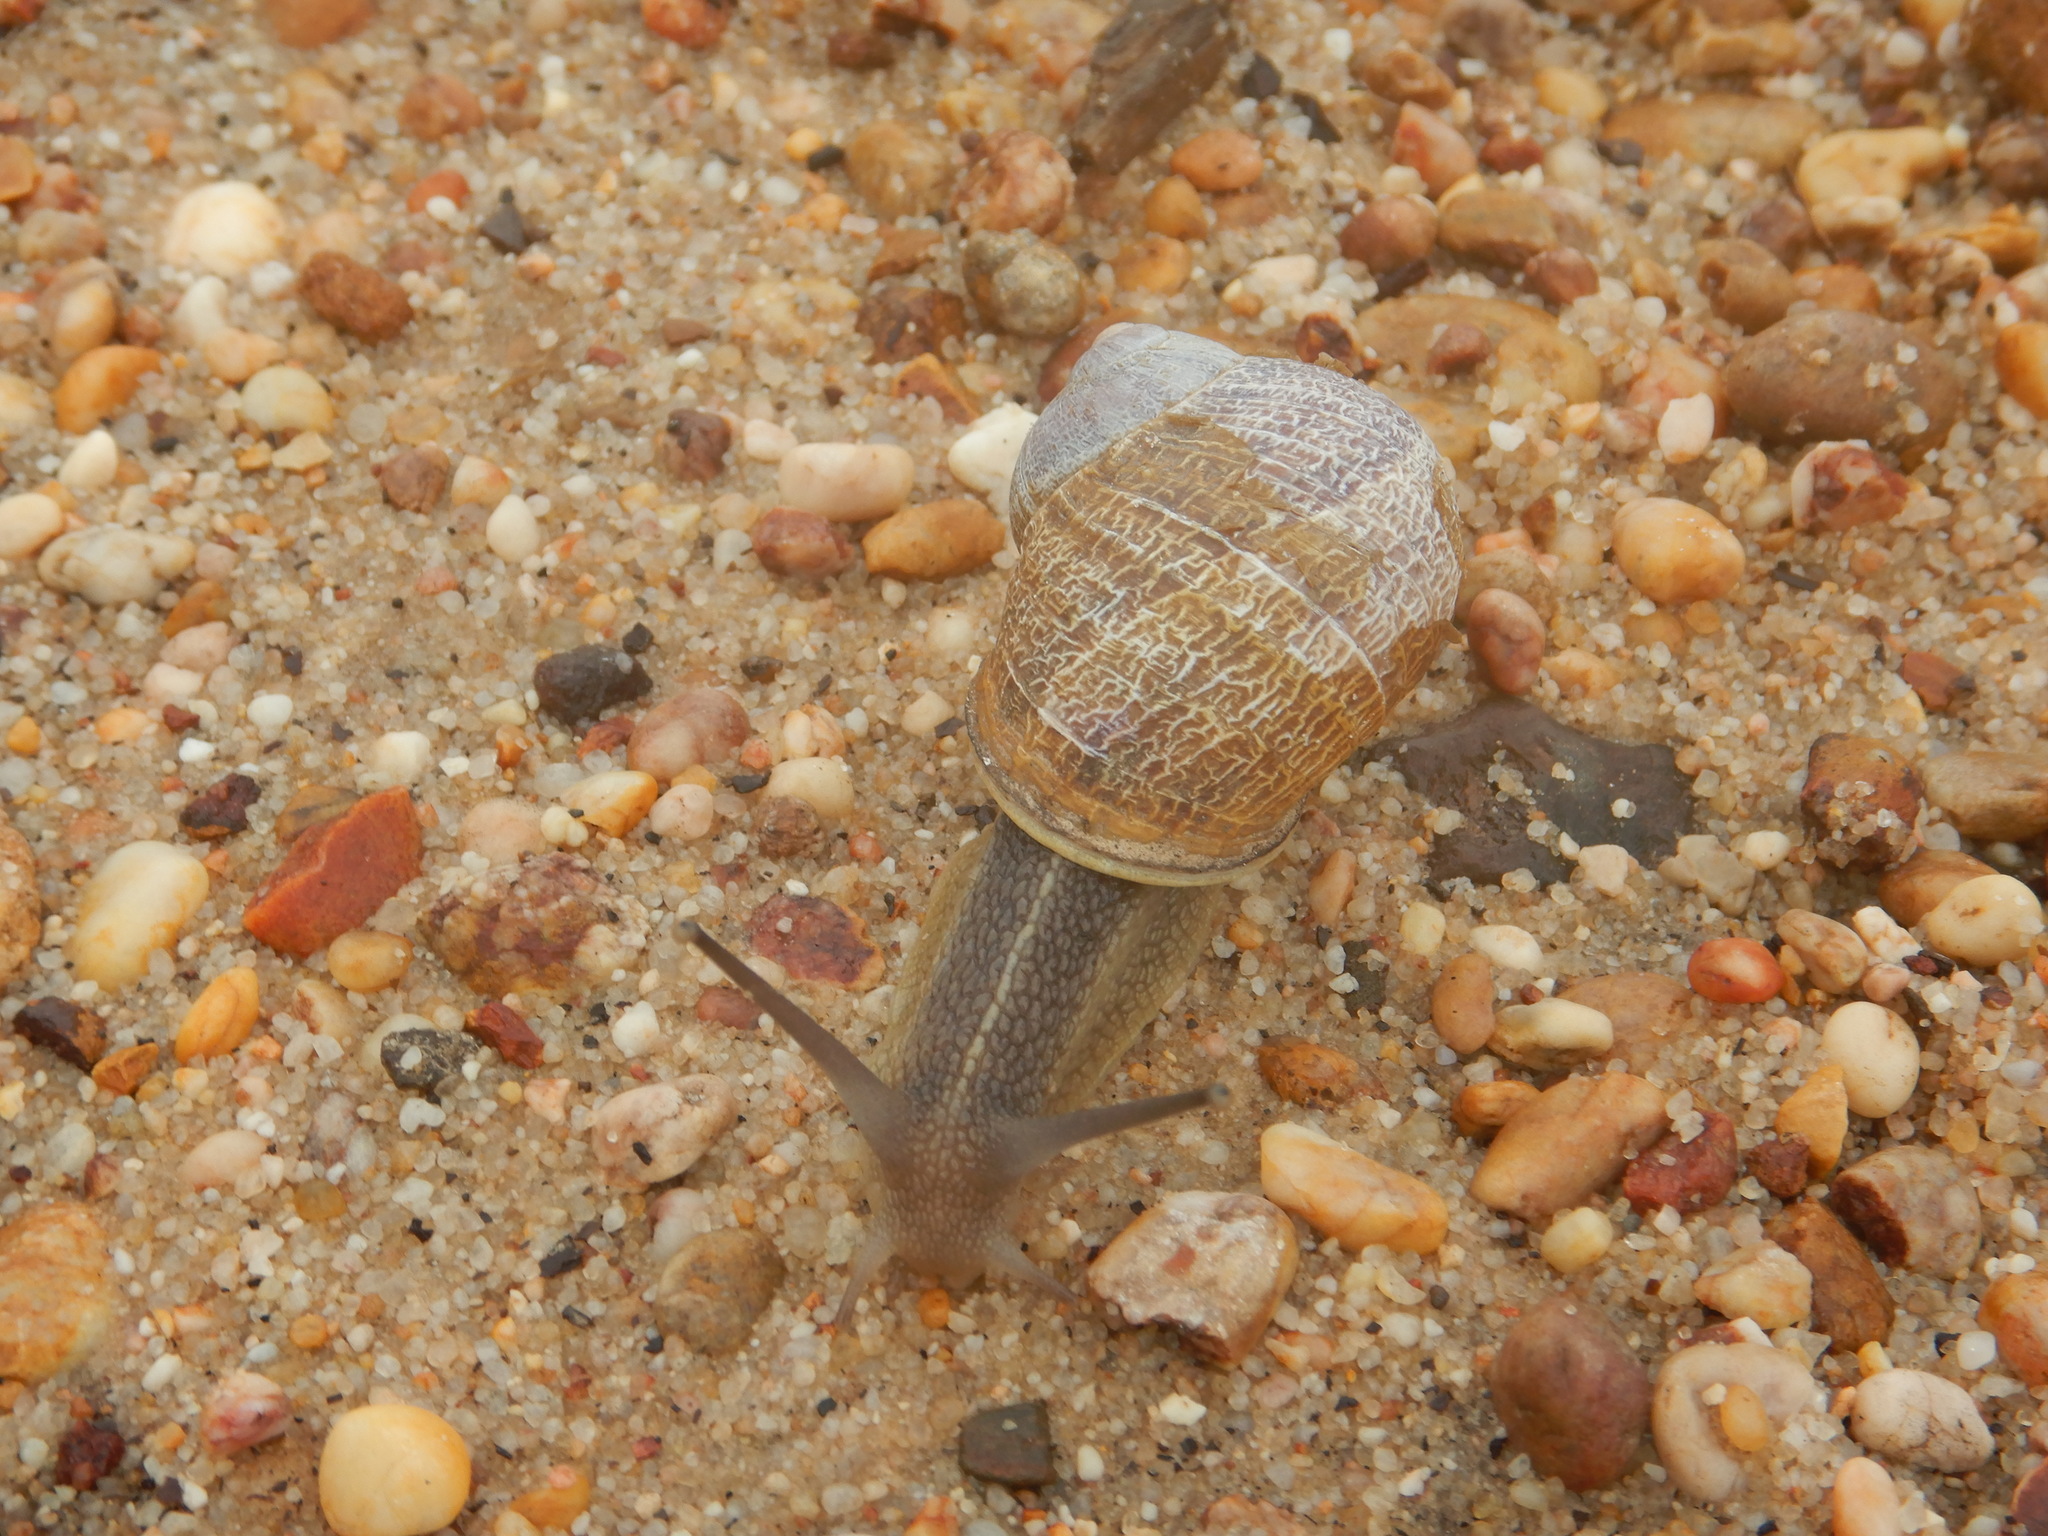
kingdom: Animalia
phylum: Mollusca
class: Gastropoda
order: Stylommatophora
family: Helicidae
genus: Cornu
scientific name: Cornu aspersum
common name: Brown garden snail
